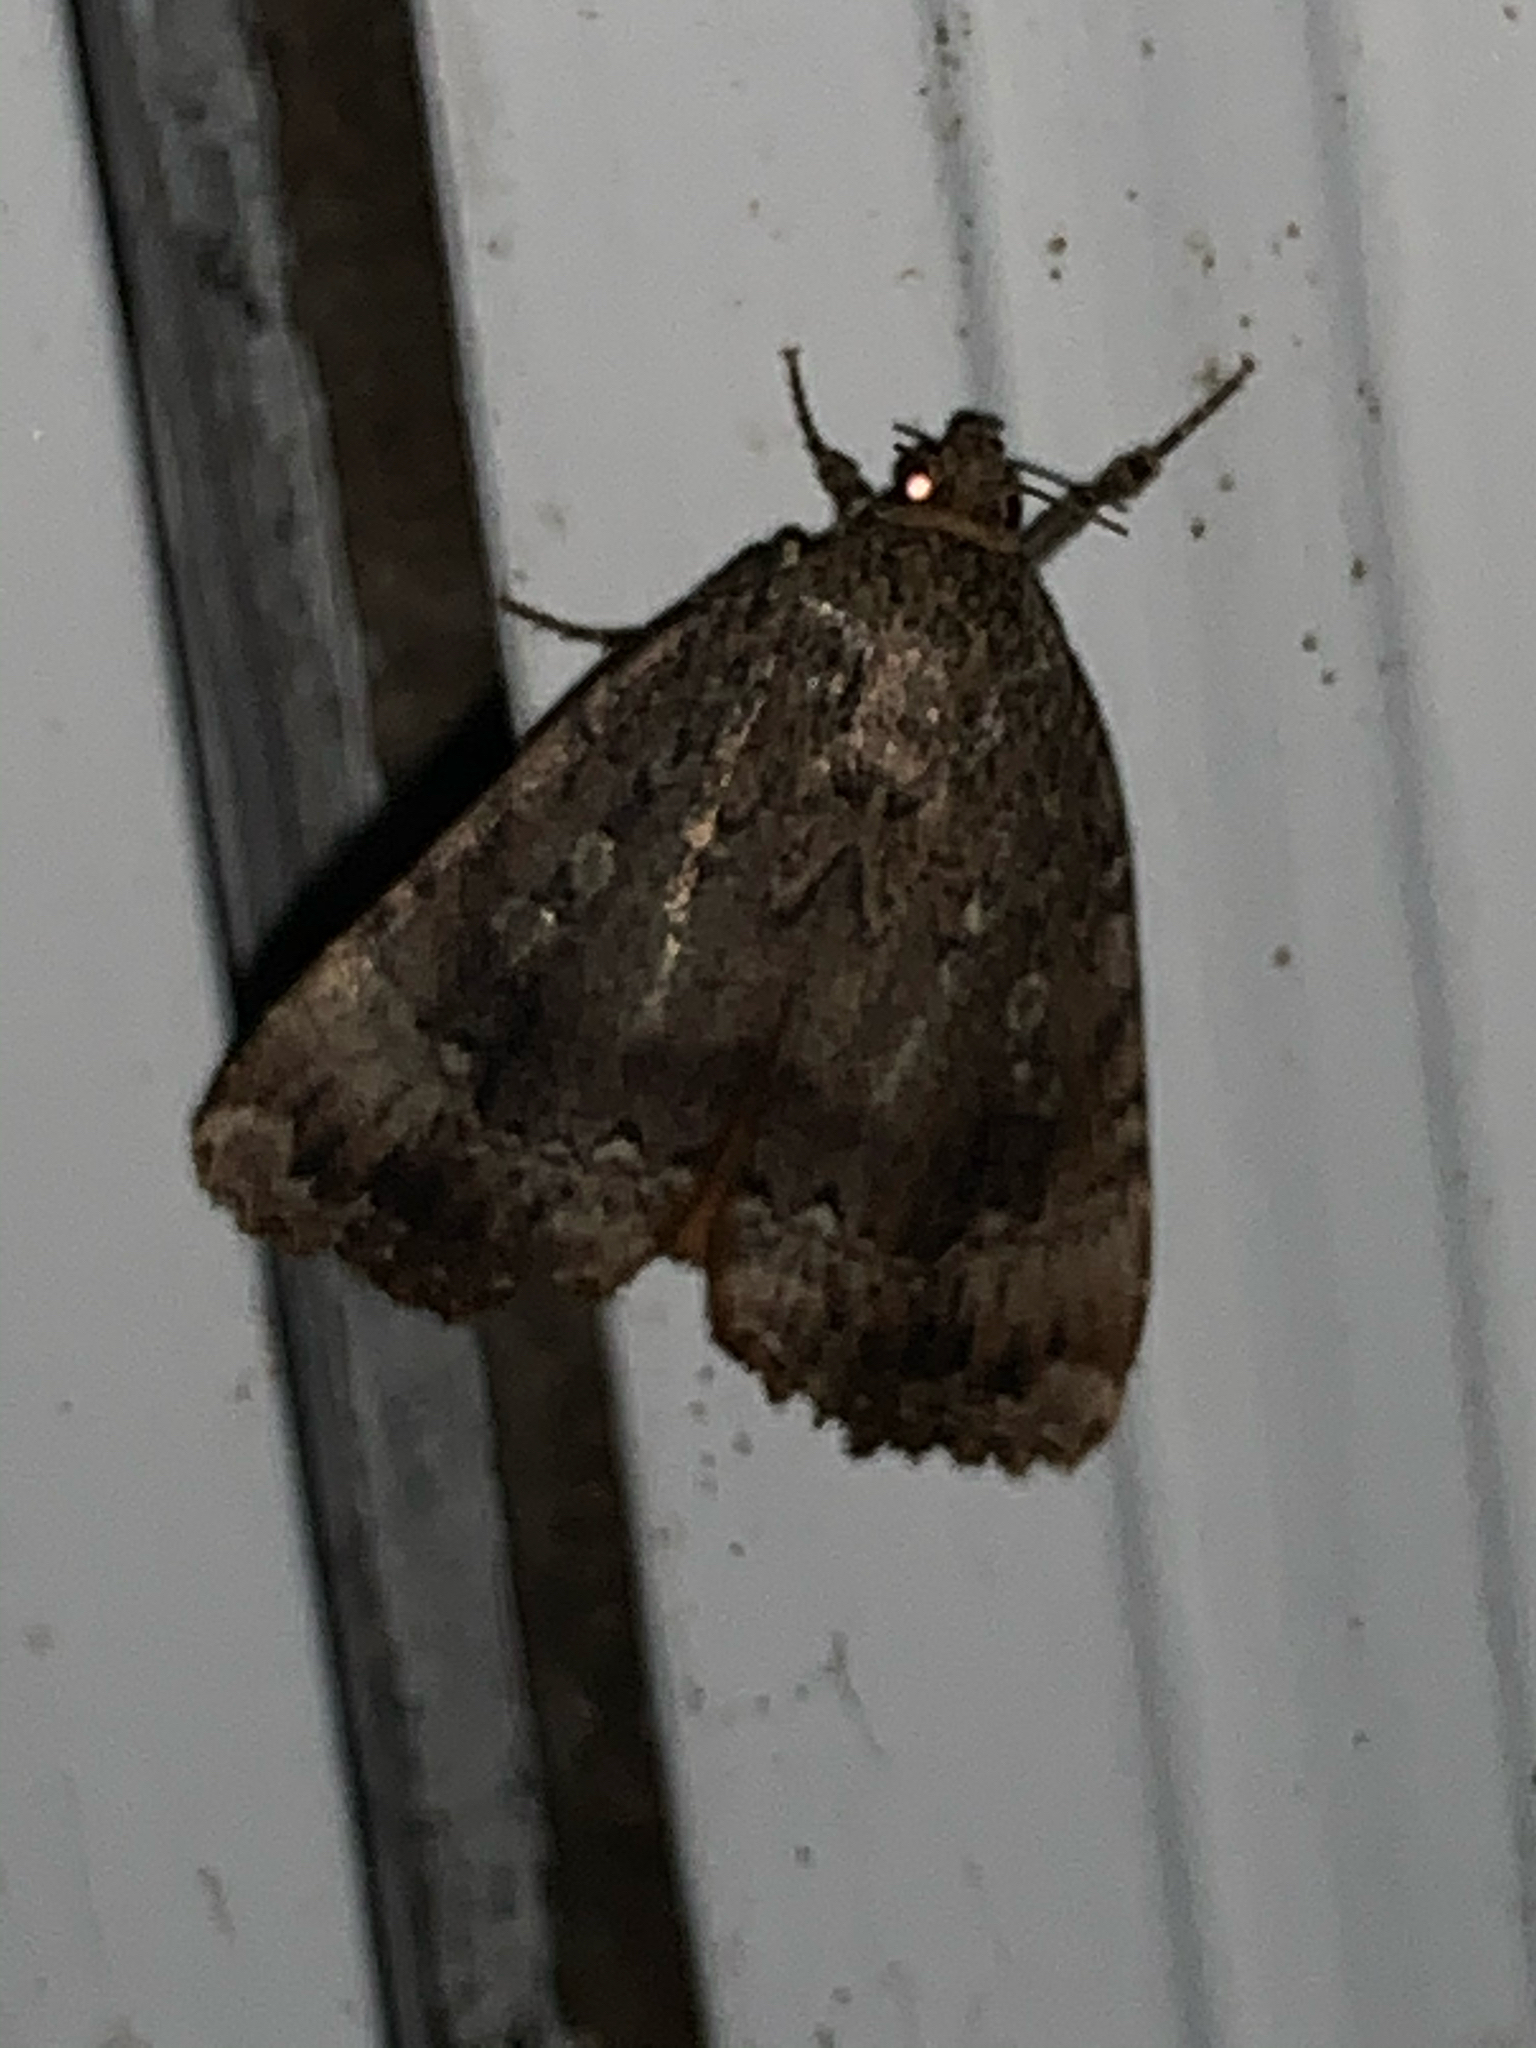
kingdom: Animalia
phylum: Arthropoda
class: Insecta
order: Lepidoptera
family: Noctuidae
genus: Amphipyra
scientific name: Amphipyra pyramidoides
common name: American copper underwing
